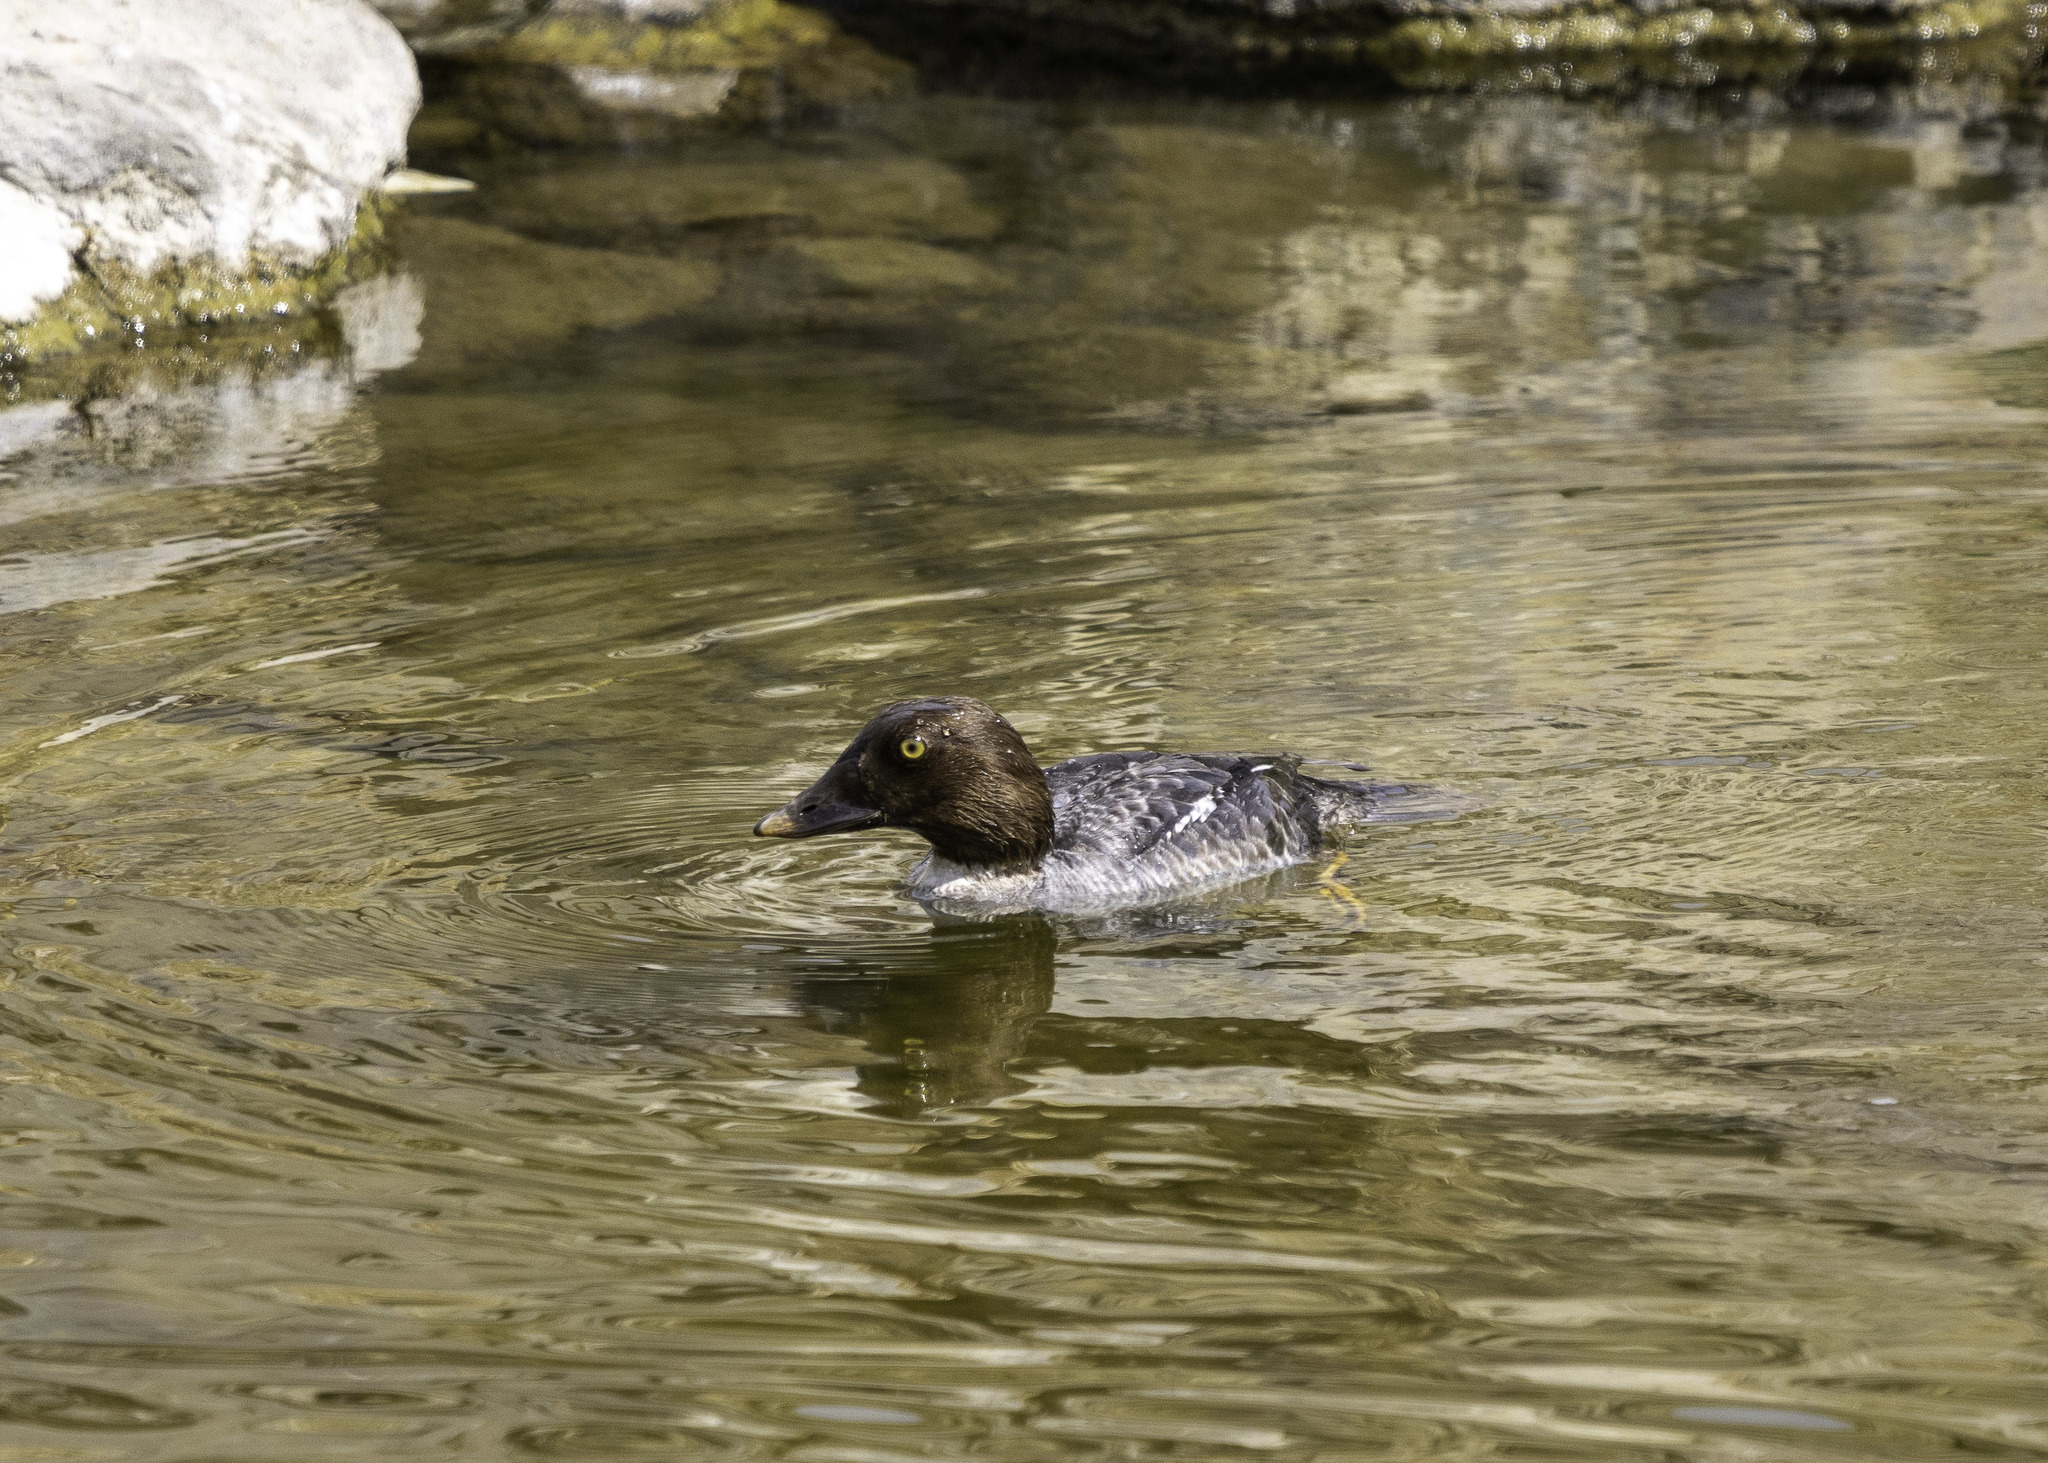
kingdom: Animalia
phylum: Chordata
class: Aves
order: Anseriformes
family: Anatidae
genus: Bucephala
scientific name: Bucephala clangula
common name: Common goldeneye
